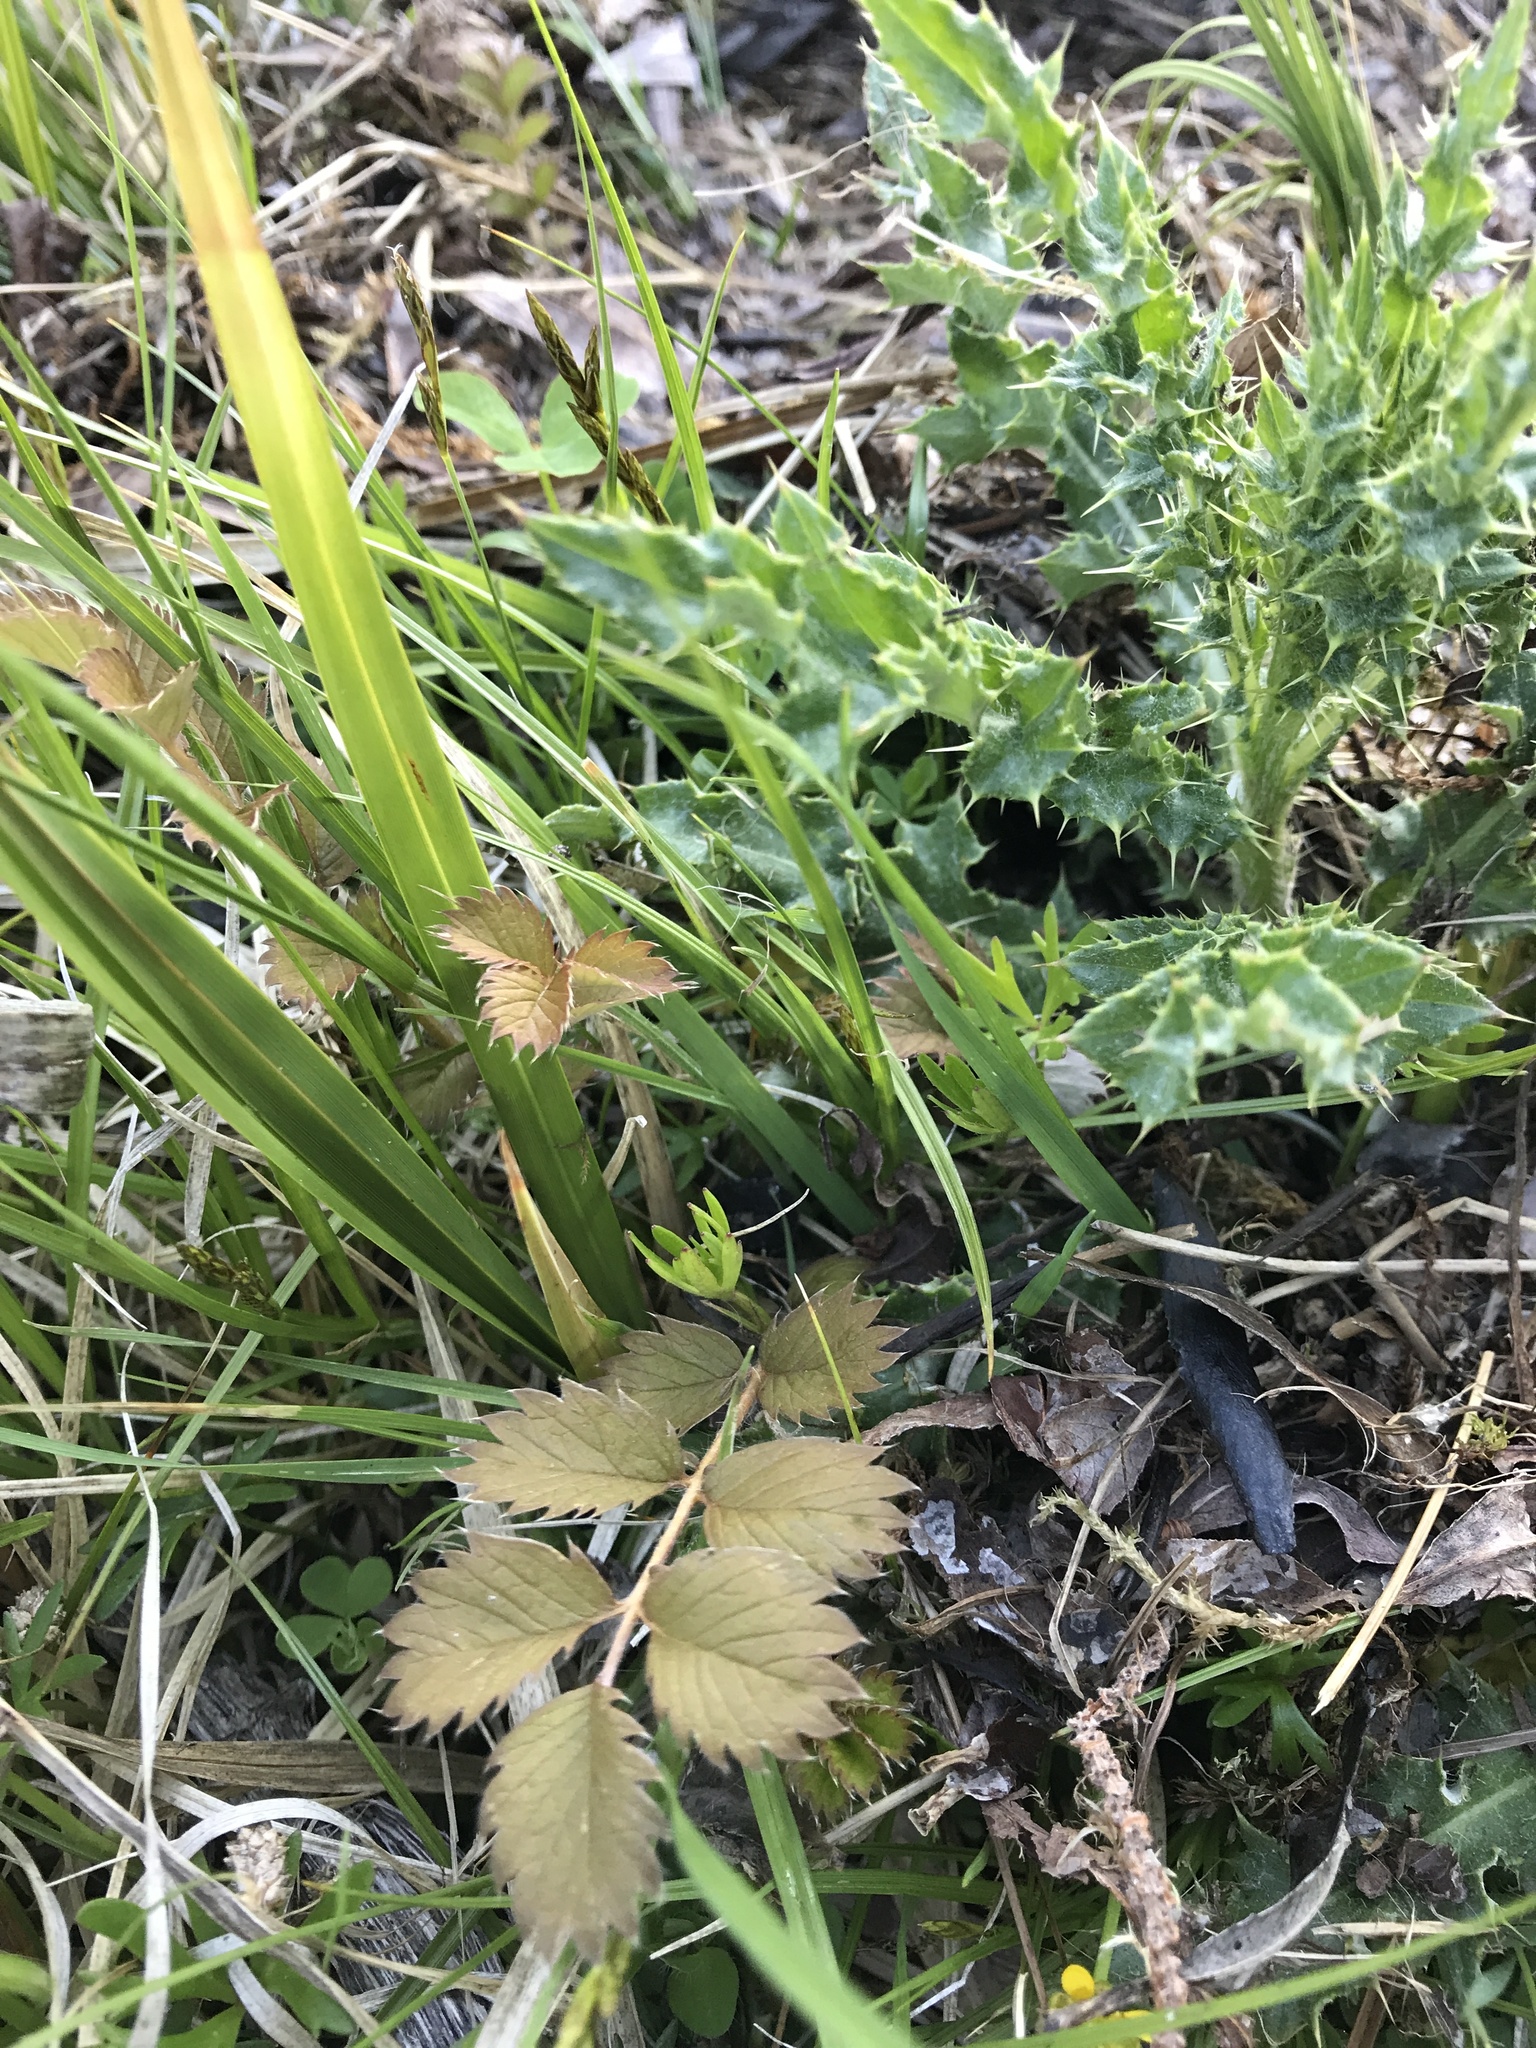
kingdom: Plantae
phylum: Tracheophyta
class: Magnoliopsida
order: Rosales
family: Rosaceae
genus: Argentina
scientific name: Argentina anserinoides
